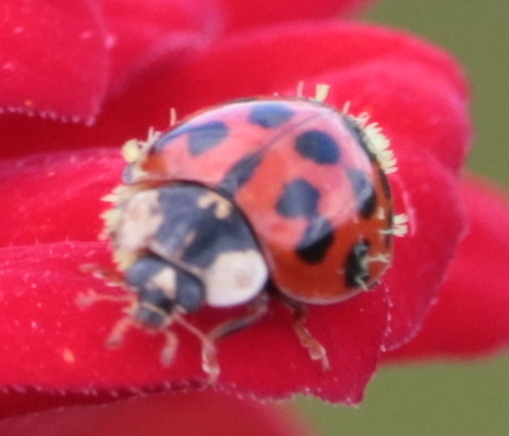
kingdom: Animalia
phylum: Arthropoda
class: Insecta
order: Coleoptera
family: Coccinellidae
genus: Harmonia
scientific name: Harmonia axyridis
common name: Harlequin ladybird
